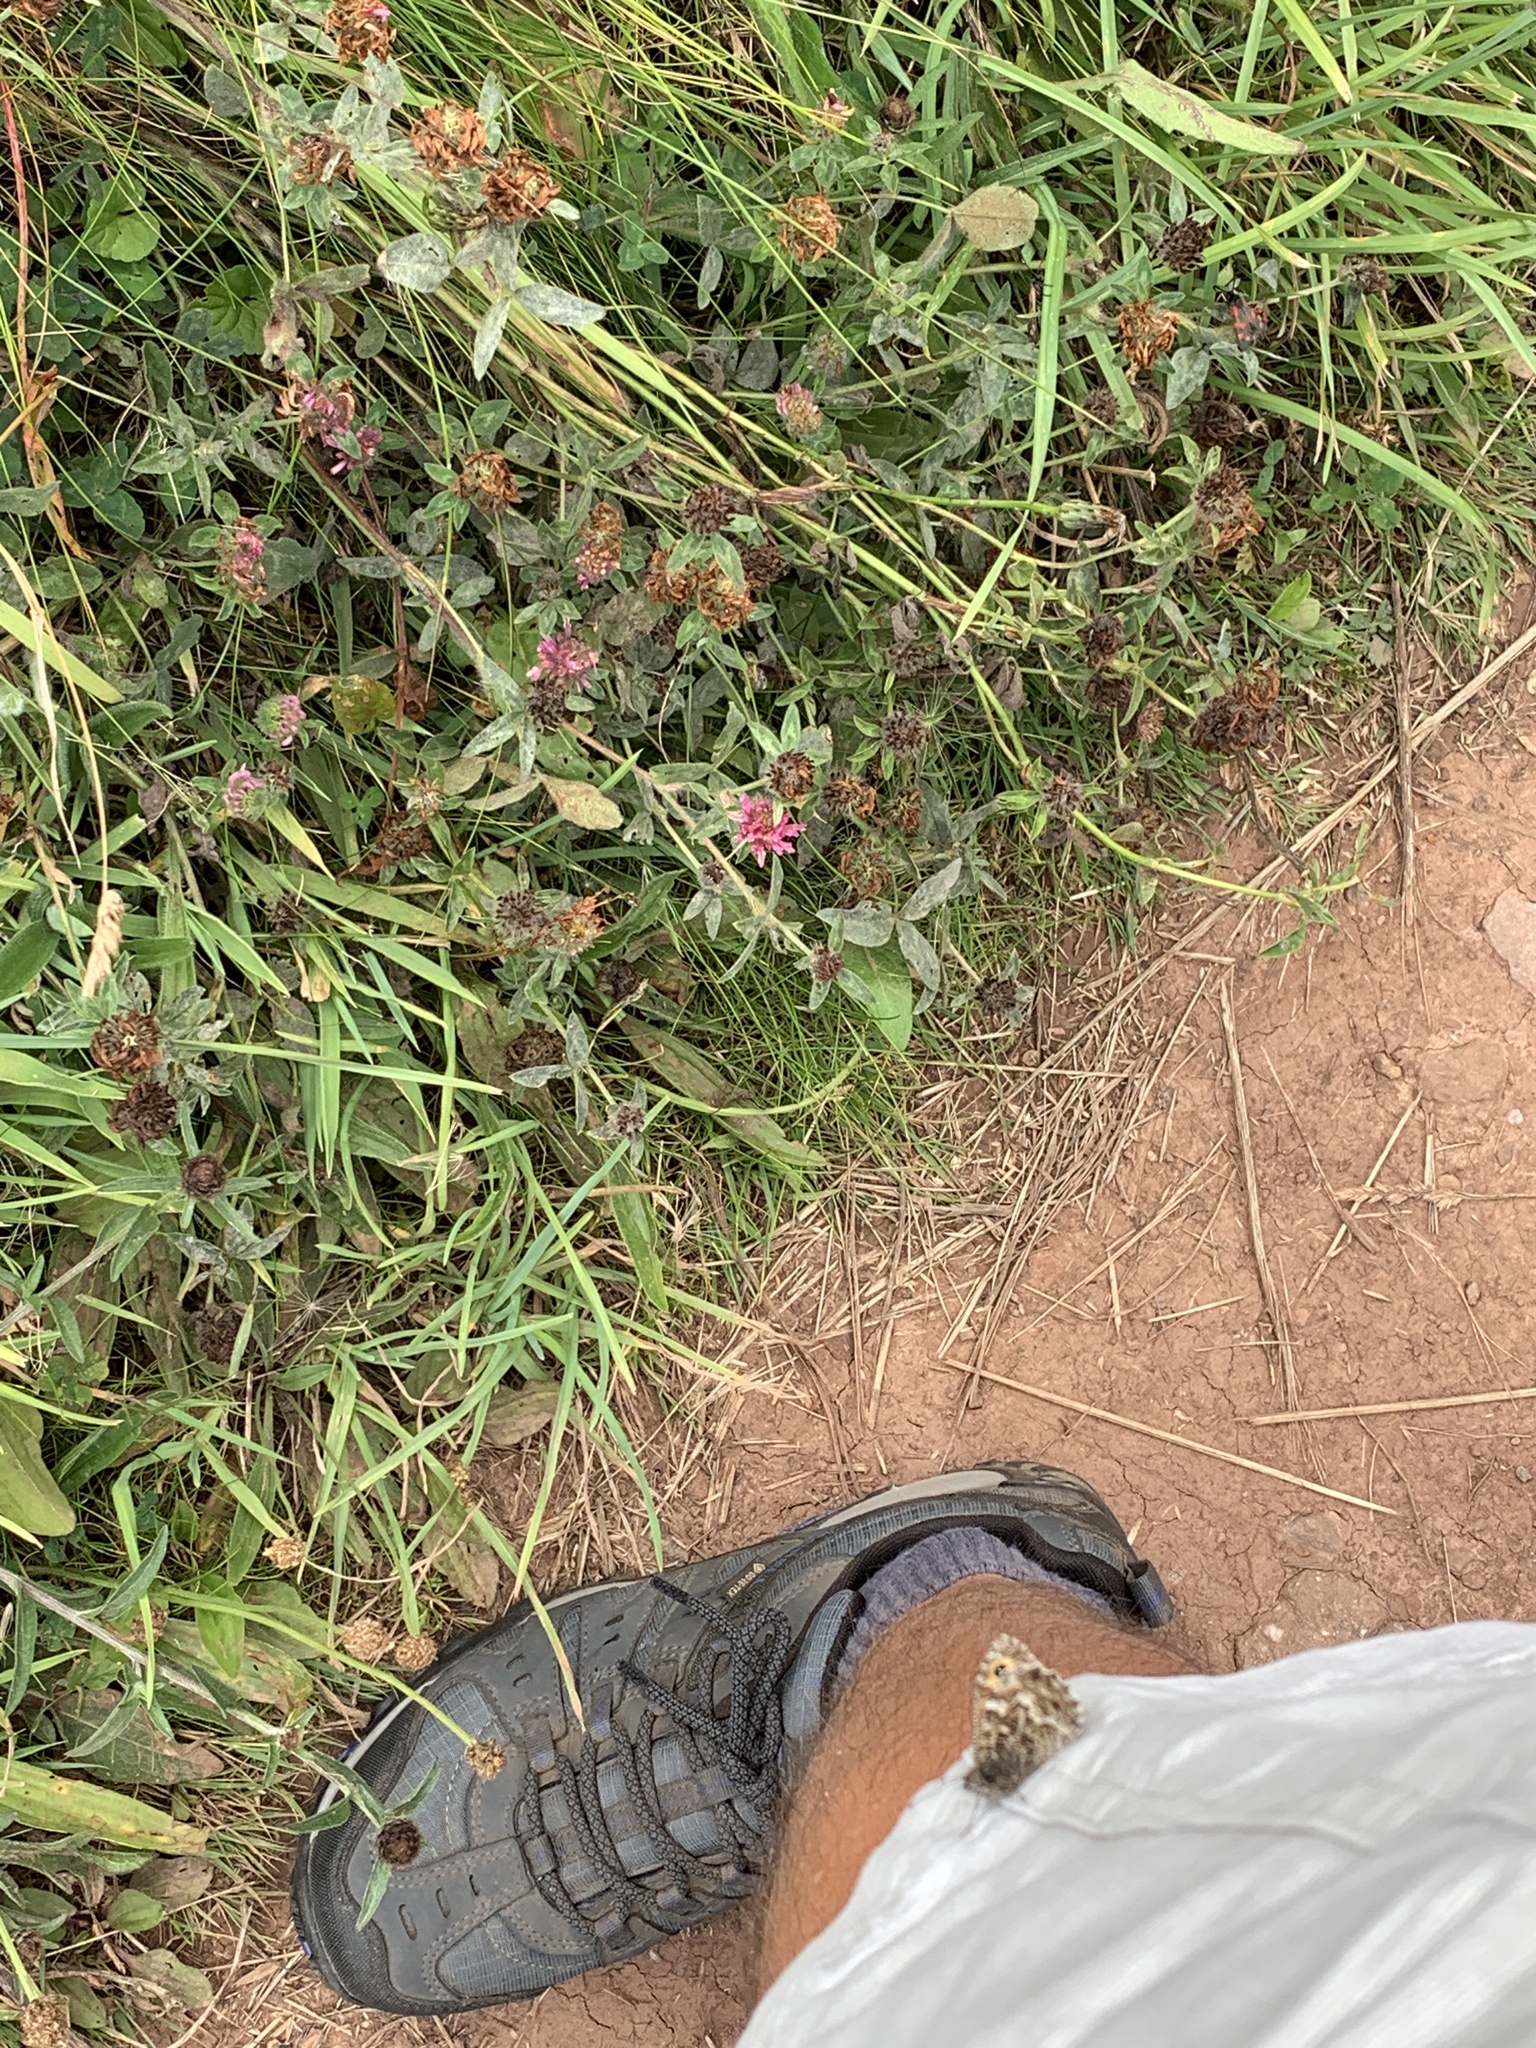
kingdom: Animalia
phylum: Arthropoda
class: Insecta
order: Lepidoptera
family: Nymphalidae
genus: Hipparchia
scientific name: Hipparchia semele
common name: Grayling
